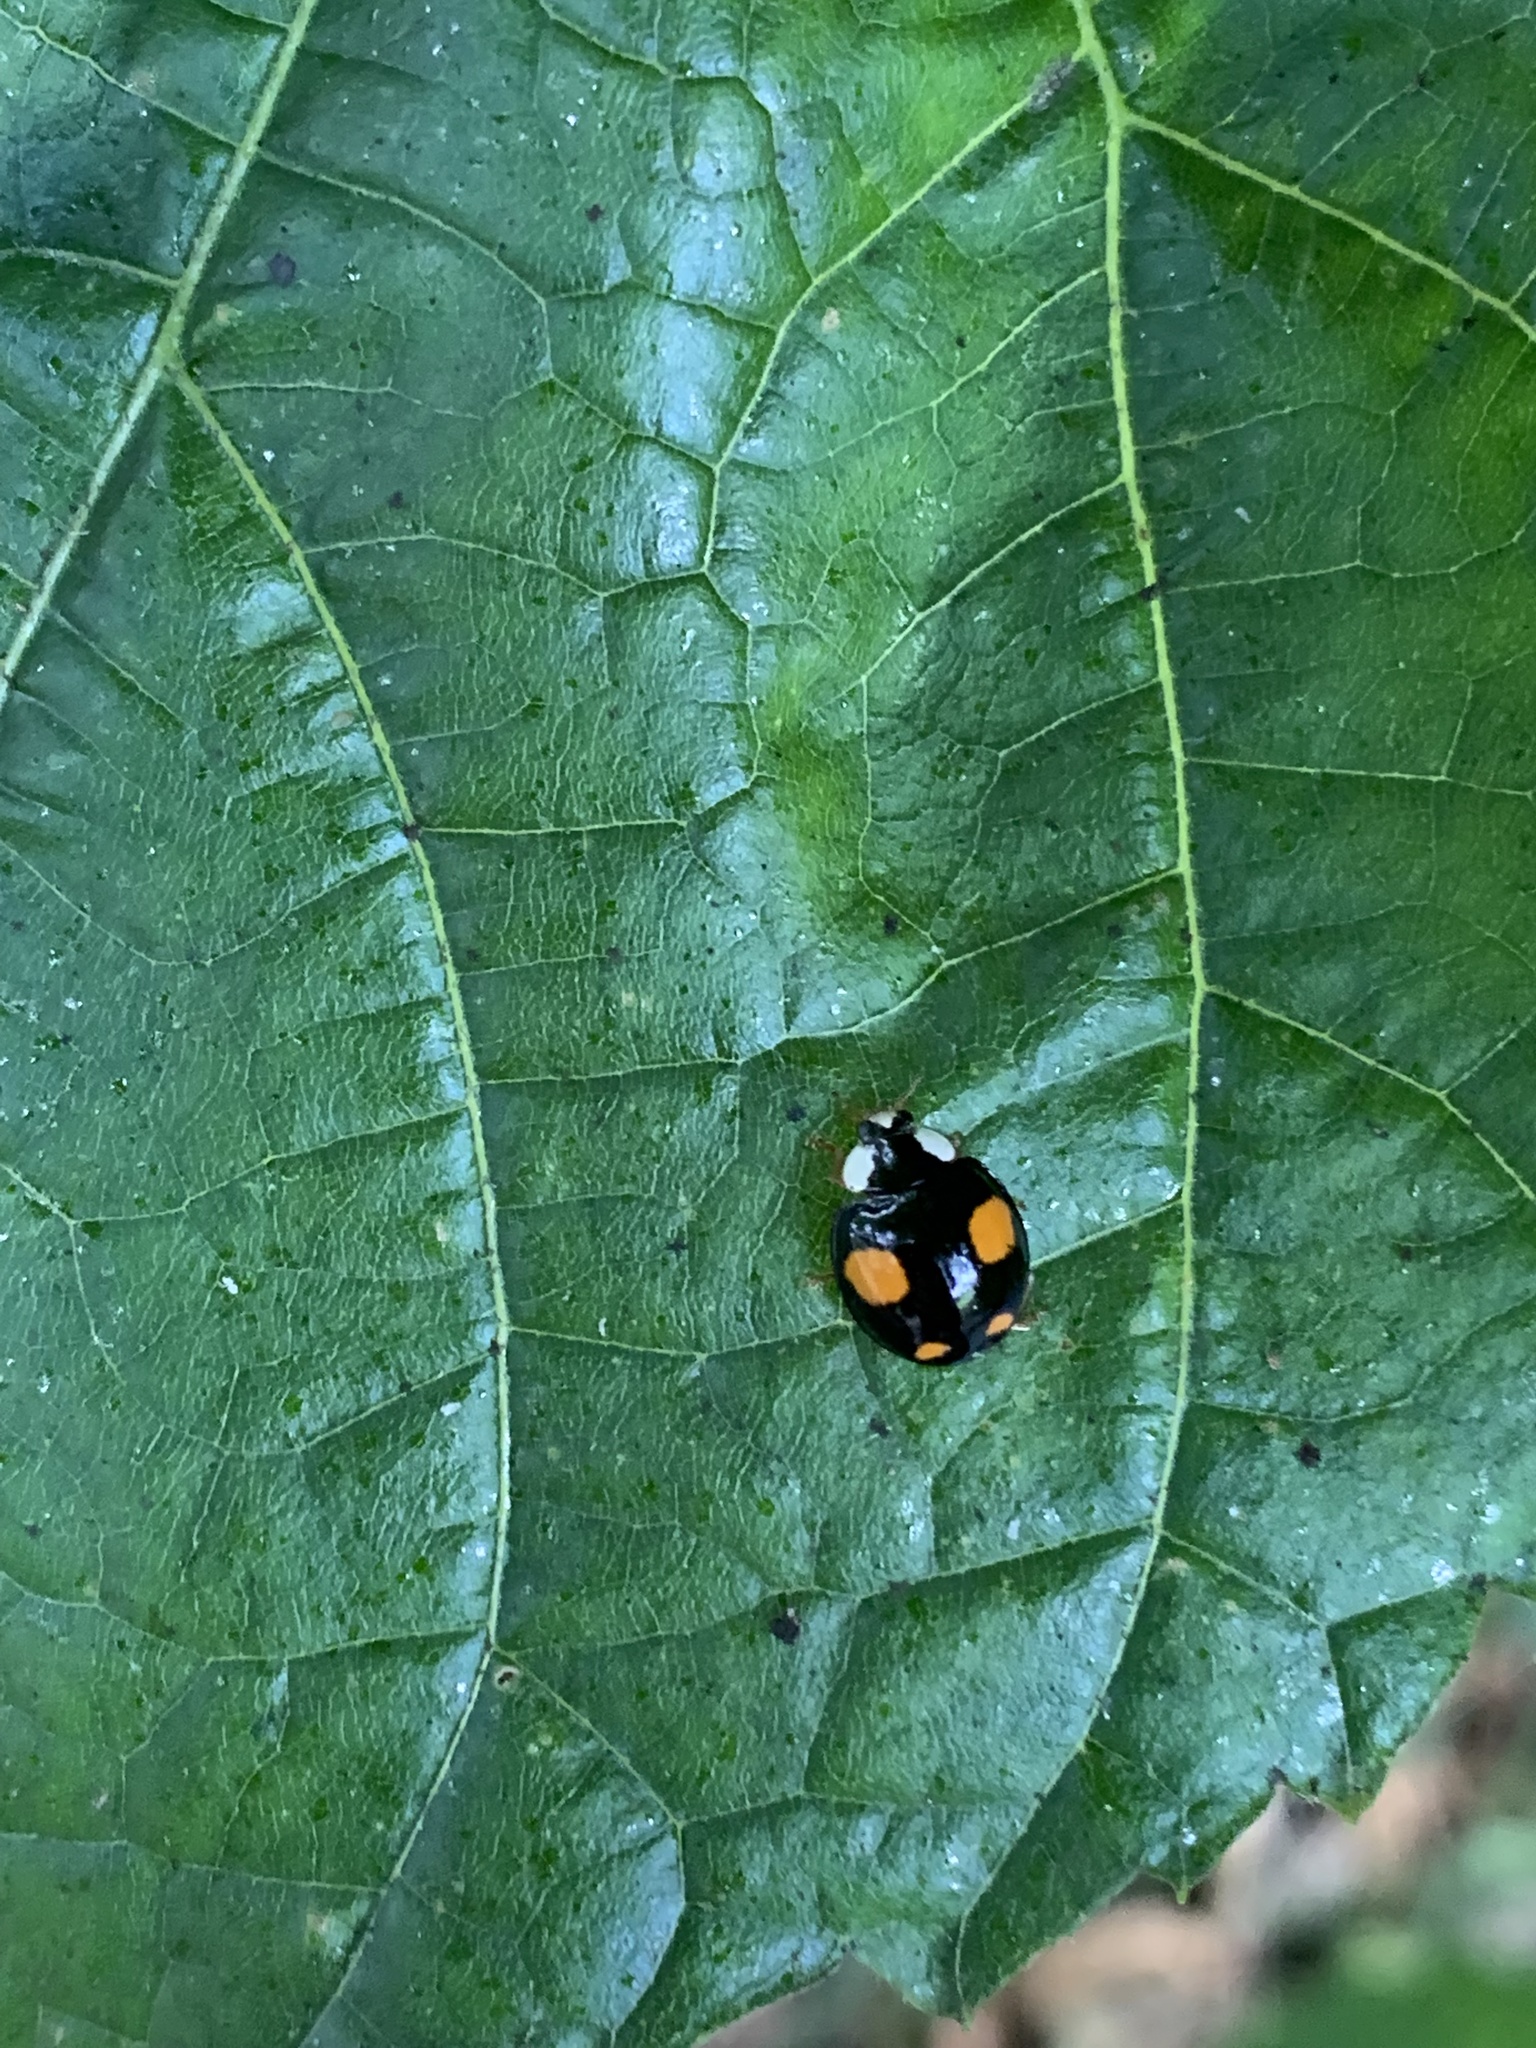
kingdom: Animalia
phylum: Arthropoda
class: Insecta
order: Coleoptera
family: Coccinellidae
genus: Harmonia
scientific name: Harmonia axyridis
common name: Harlequin ladybird
